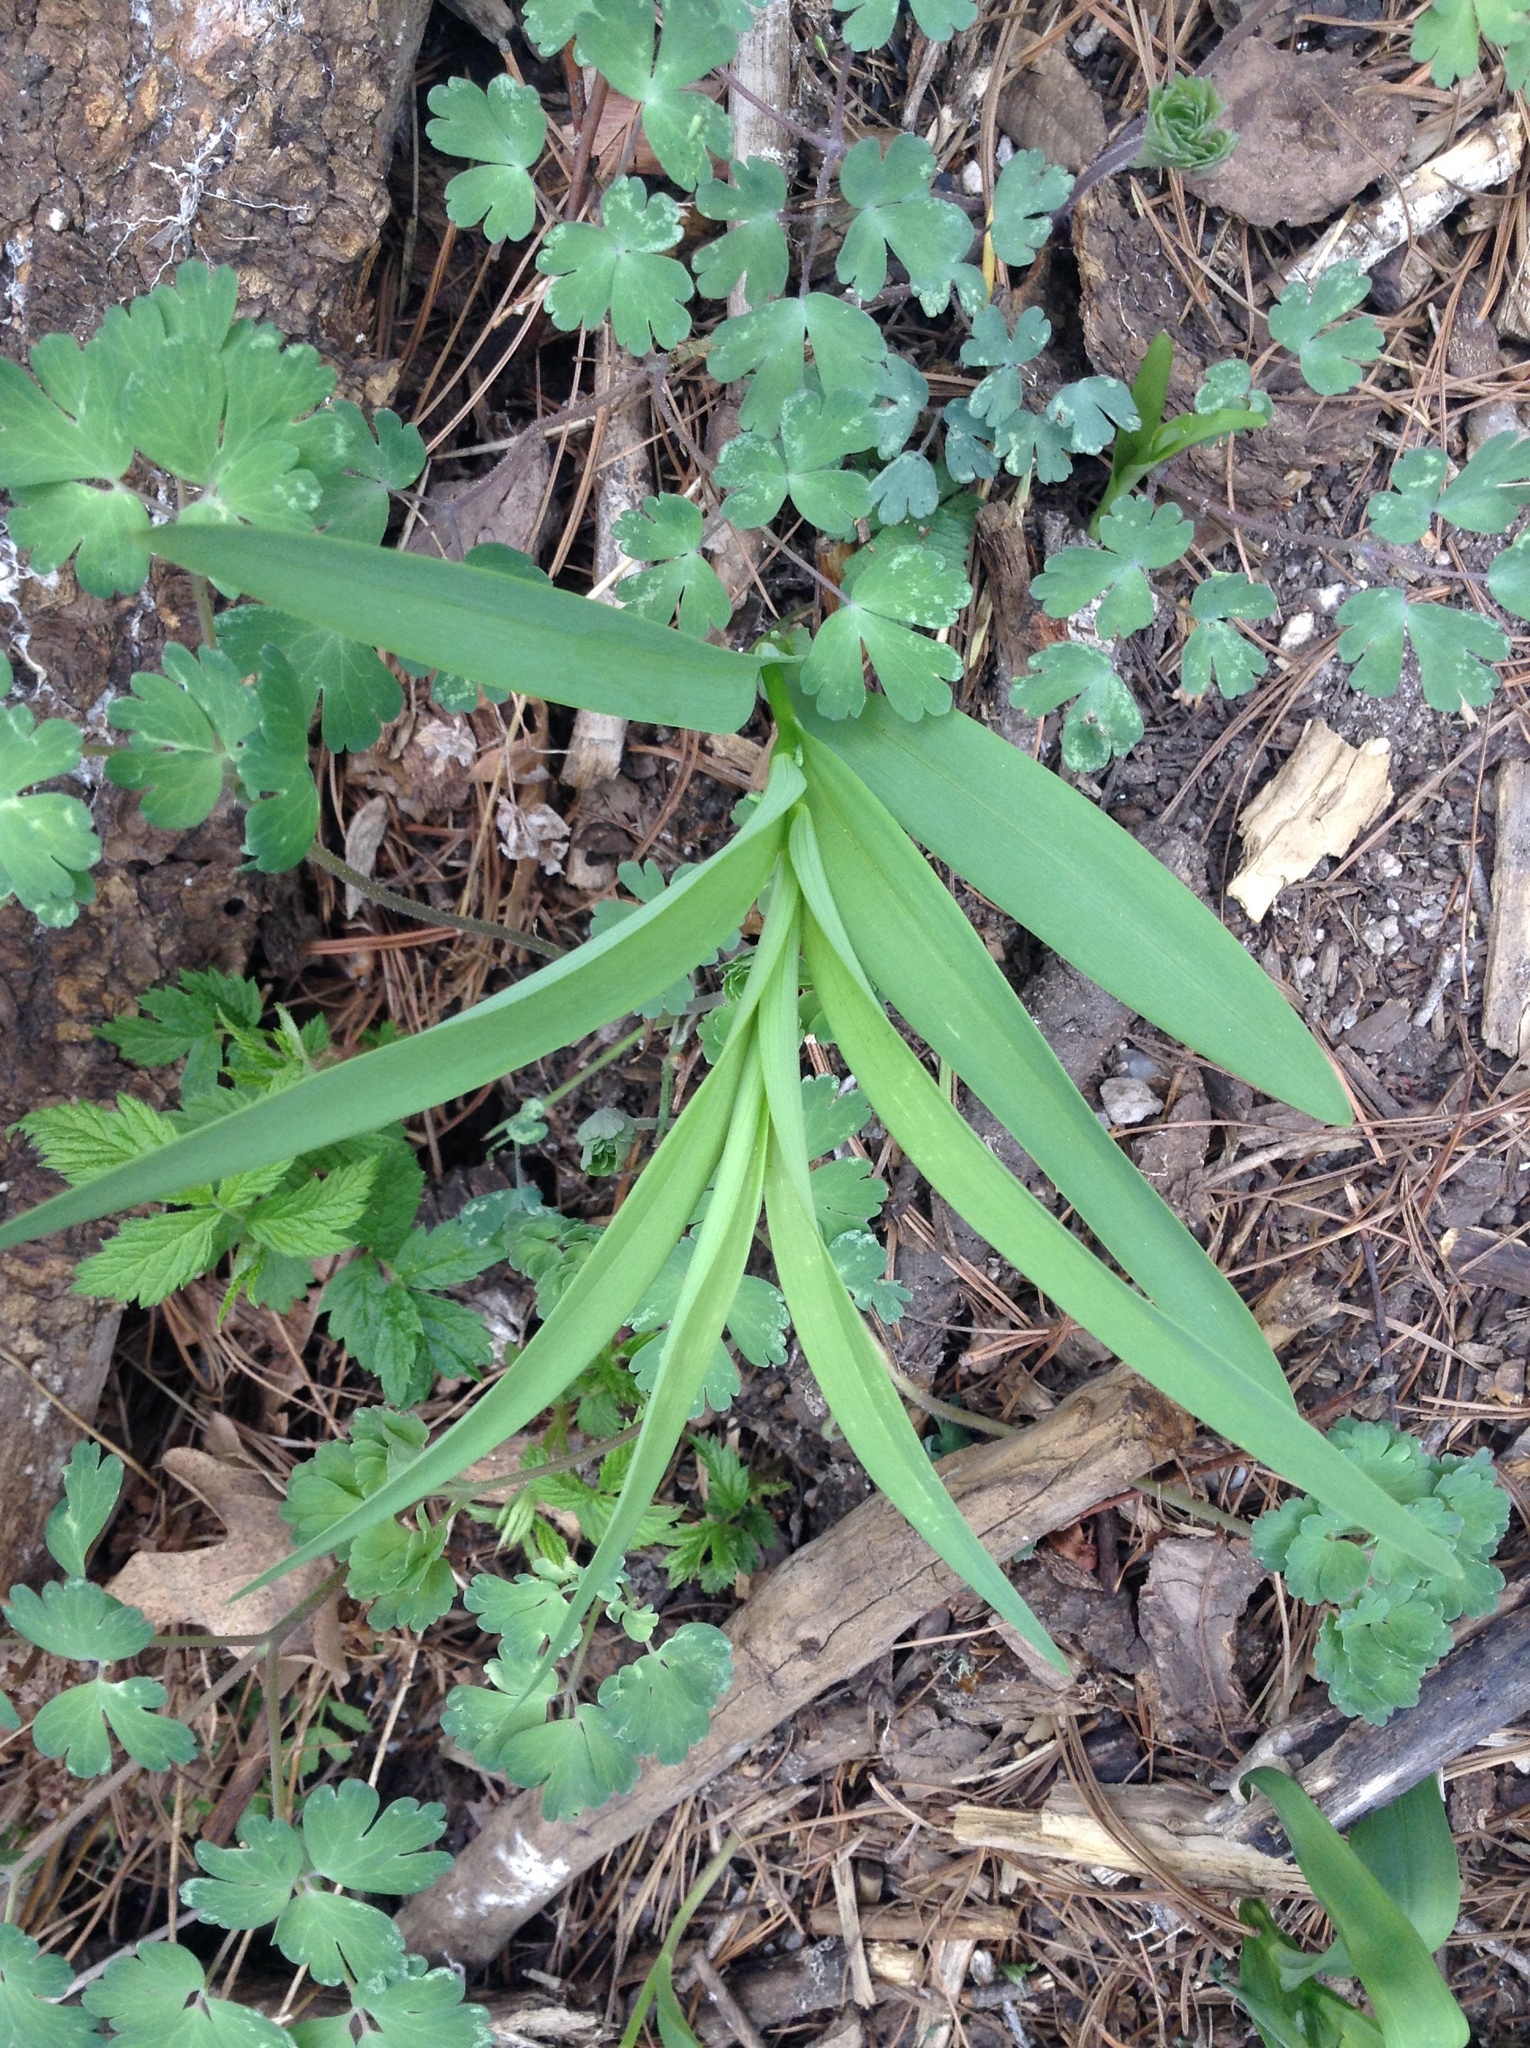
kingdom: Plantae
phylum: Tracheophyta
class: Liliopsida
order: Asparagales
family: Asparagaceae
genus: Maianthemum
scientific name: Maianthemum stellatum
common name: Little false solomon's seal
